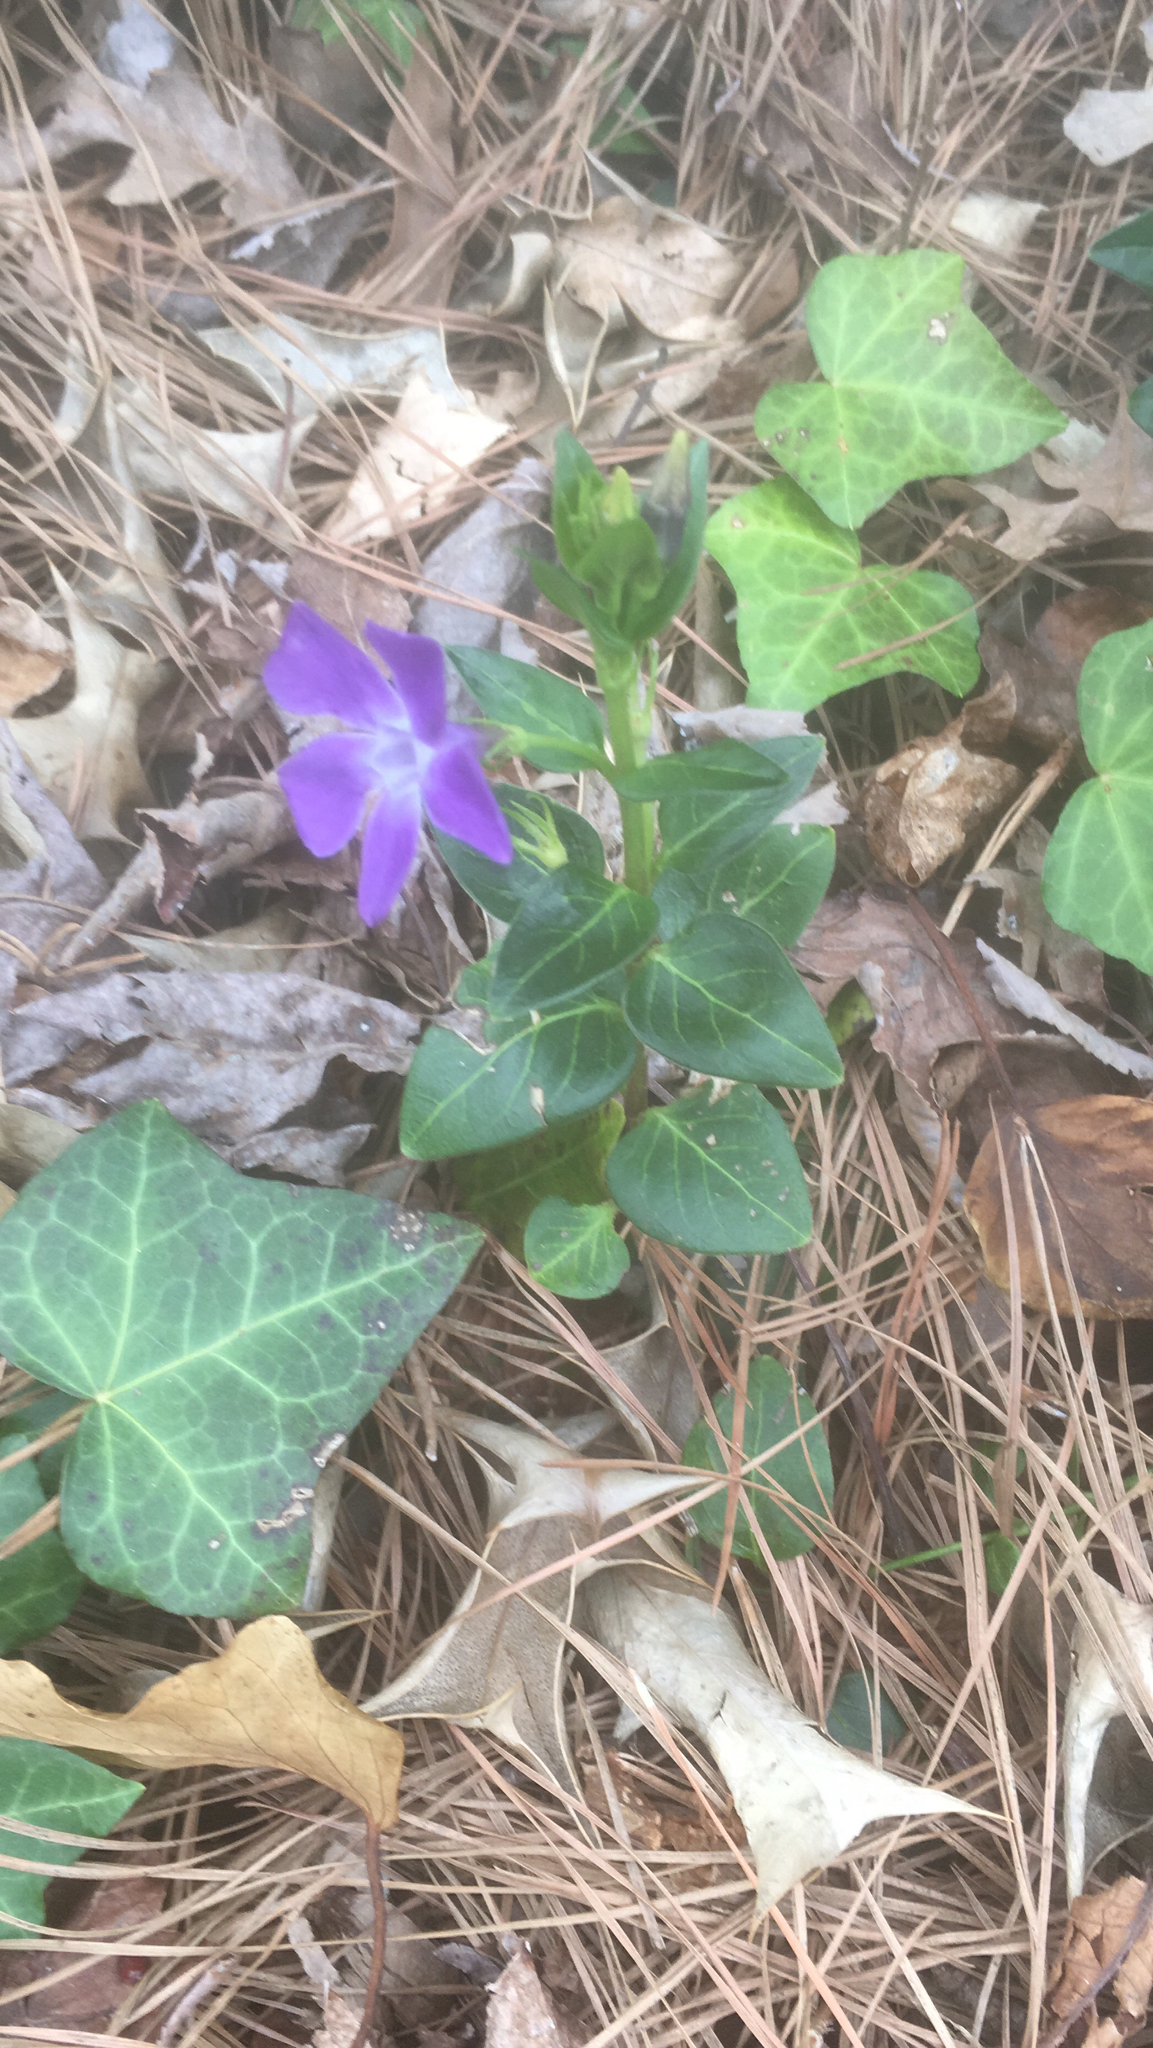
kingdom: Plantae
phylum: Tracheophyta
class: Magnoliopsida
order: Gentianales
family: Apocynaceae
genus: Vinca
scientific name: Vinca major
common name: Greater periwinkle
